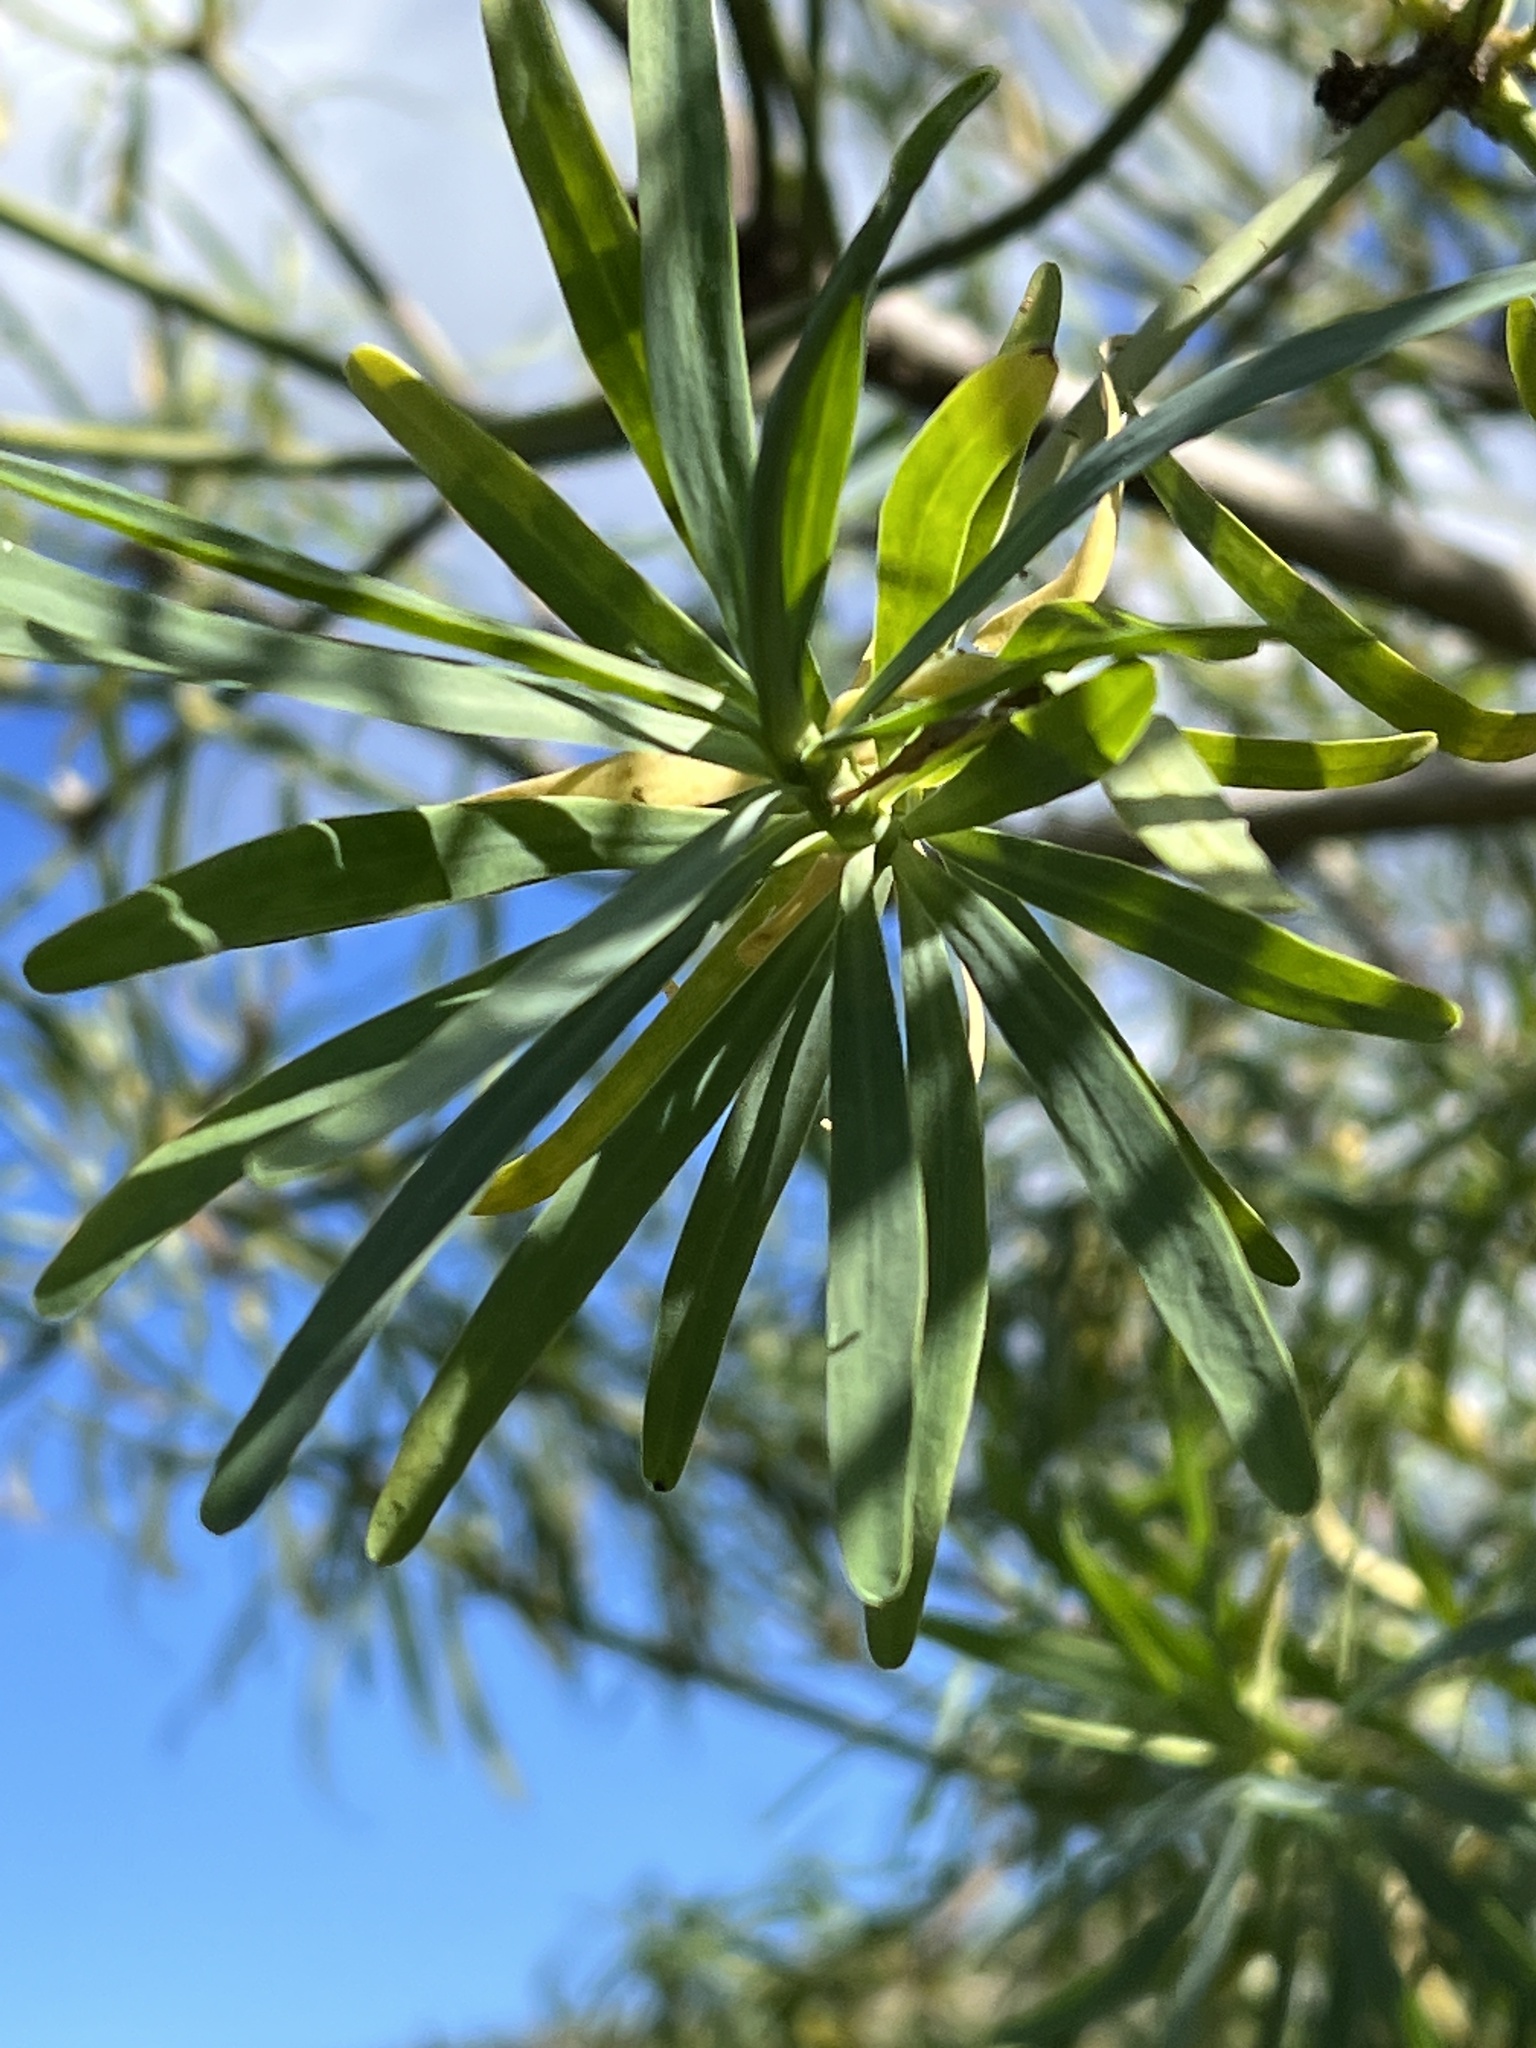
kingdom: Plantae
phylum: Tracheophyta
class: Magnoliopsida
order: Malpighiales
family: Euphorbiaceae
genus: Euphorbia
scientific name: Euphorbia lamarckii
